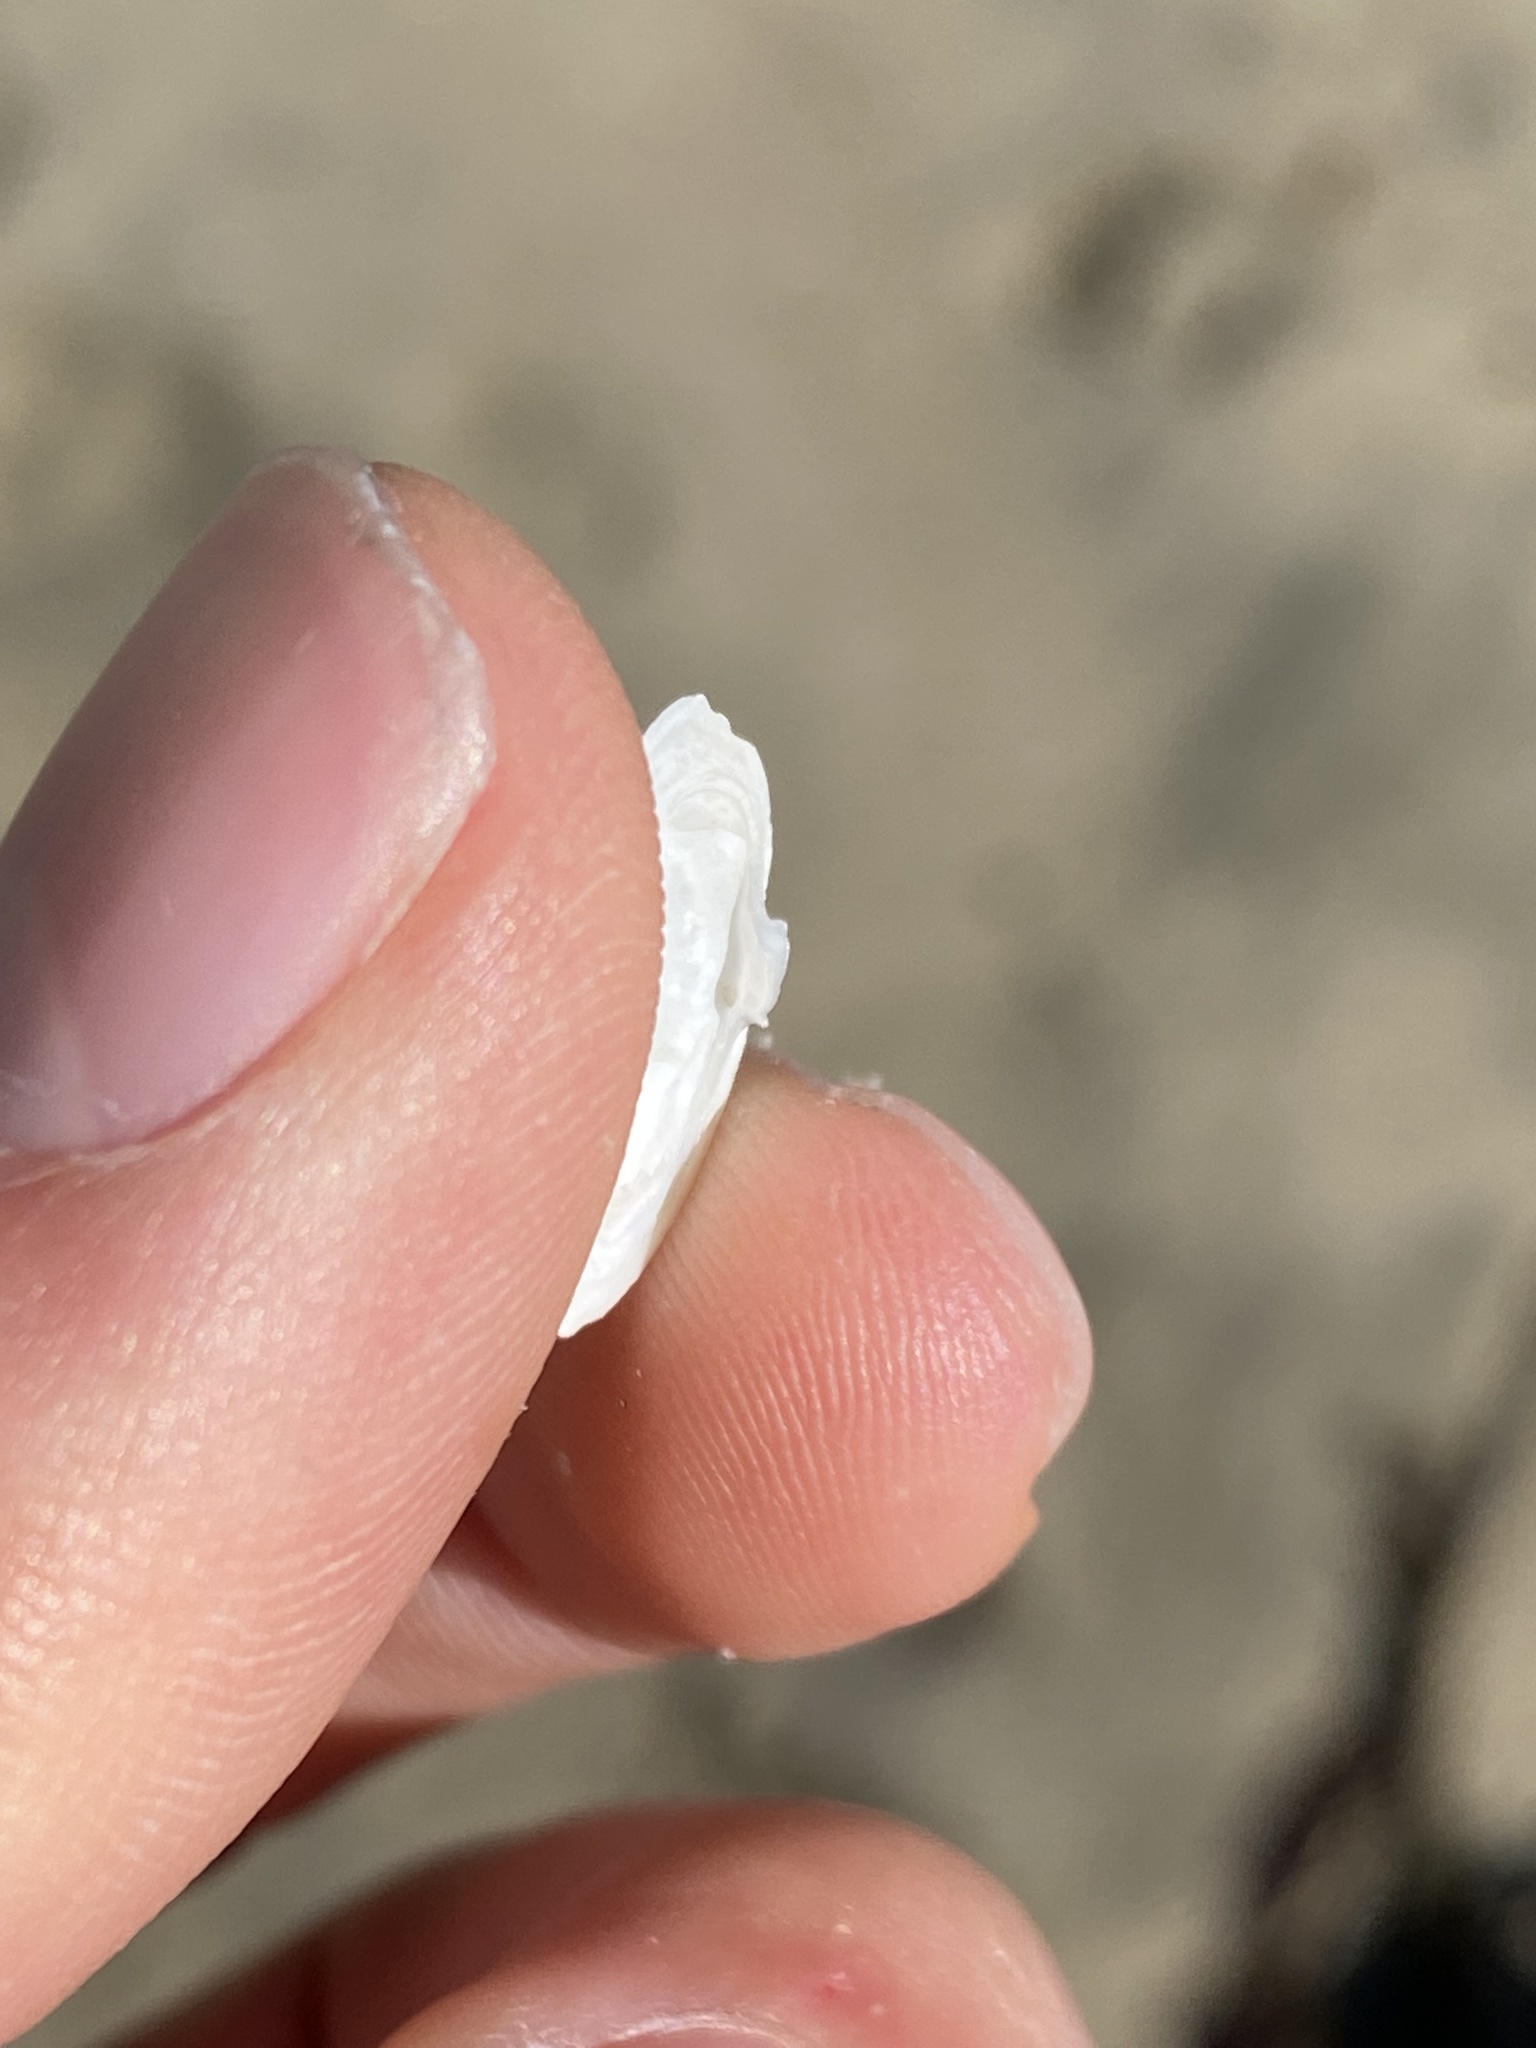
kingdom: Animalia
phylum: Mollusca
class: Bivalvia
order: Myida
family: Myidae
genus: Cryptomya
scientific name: Cryptomya californica
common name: California softshell clam
